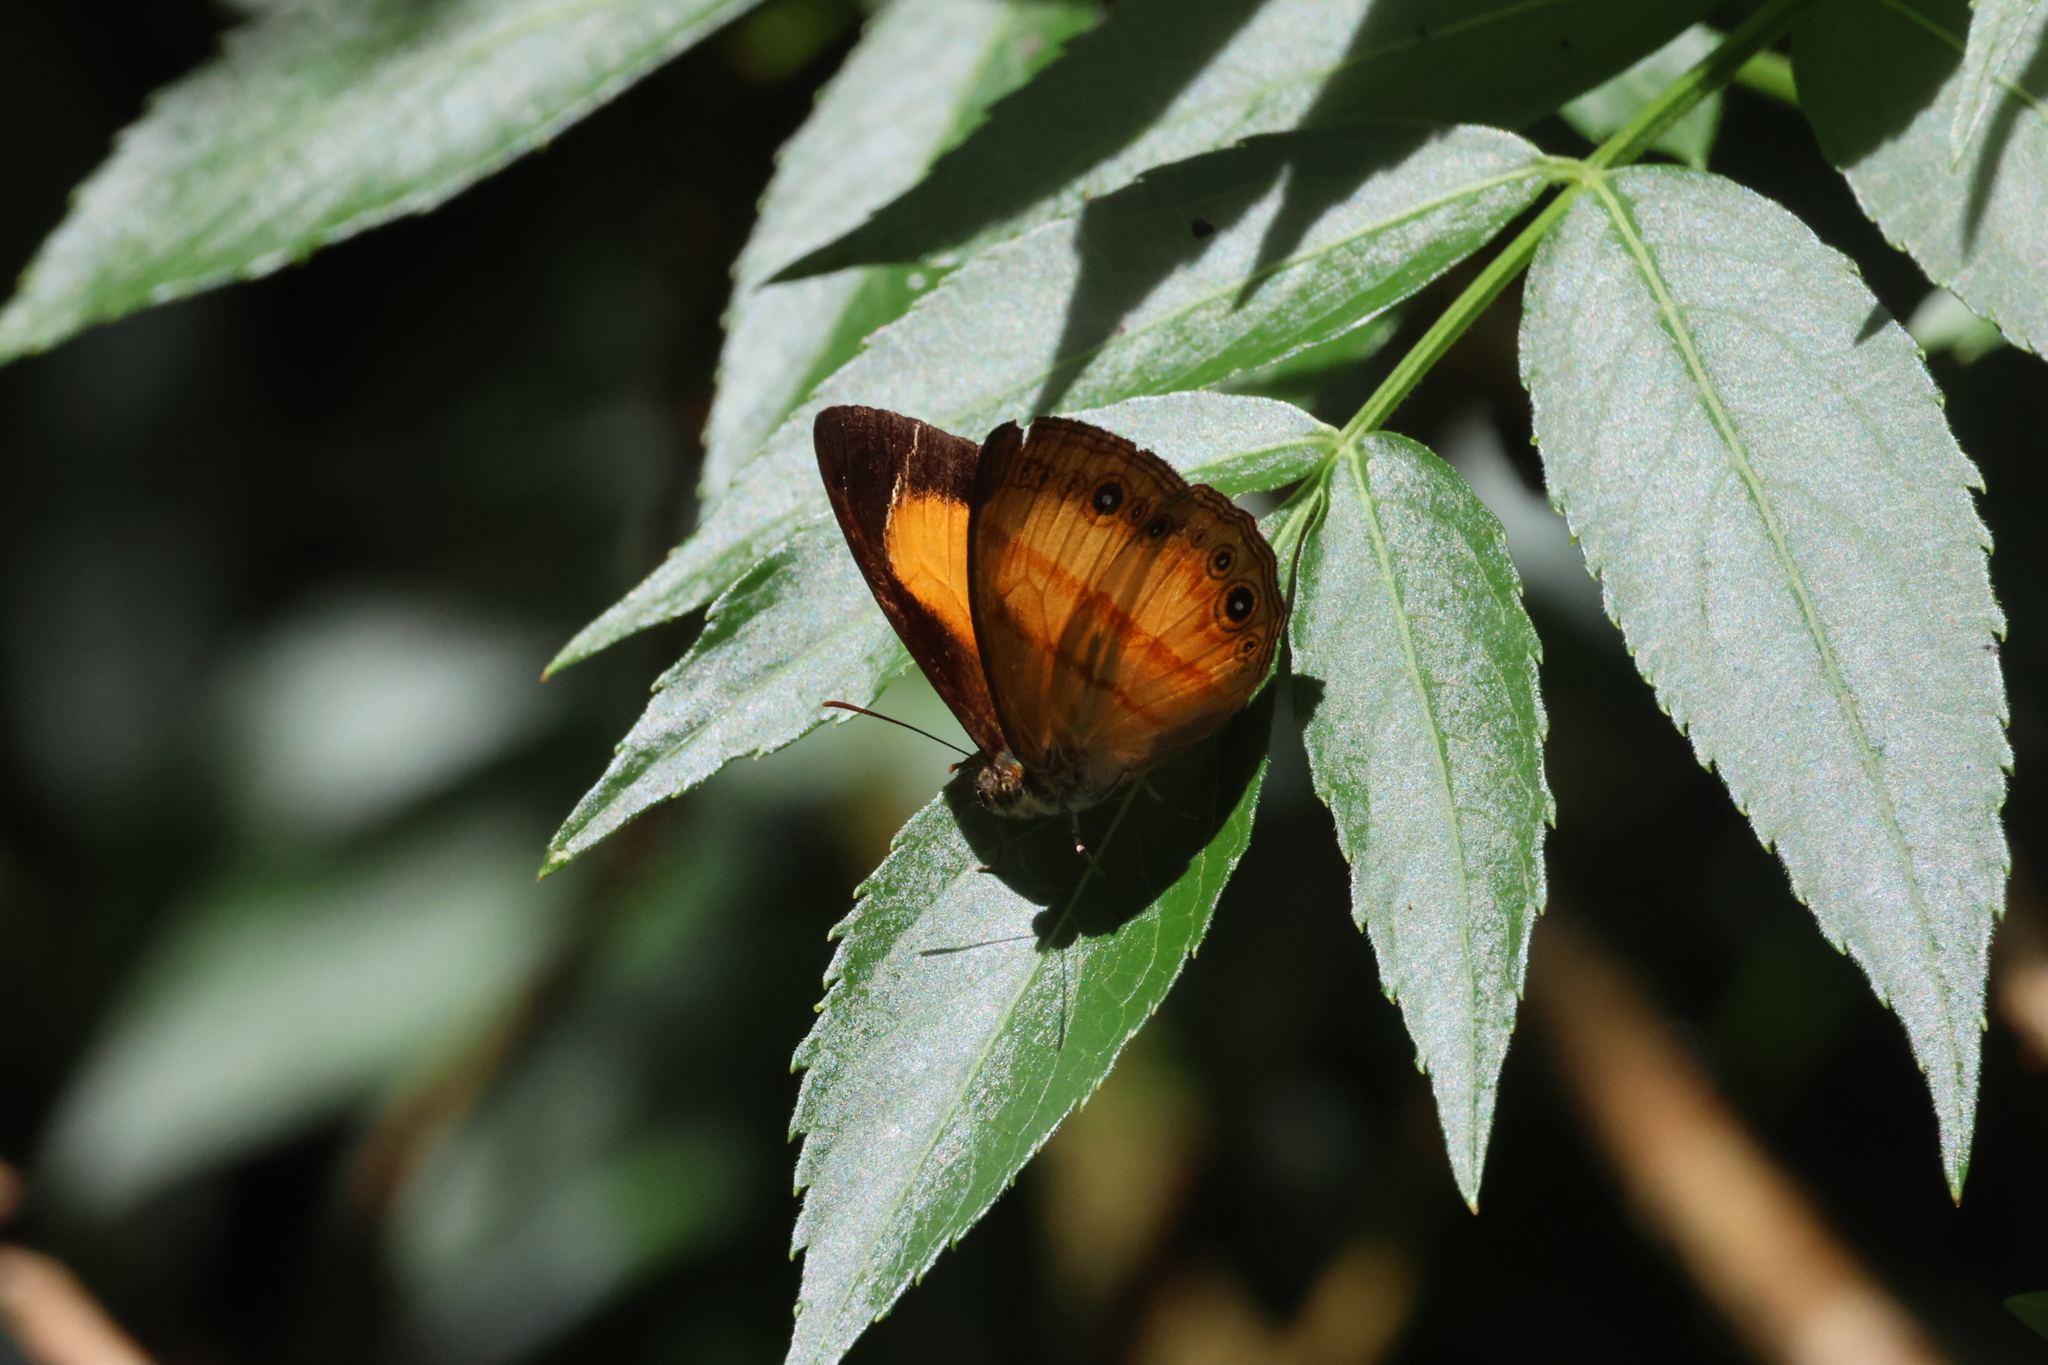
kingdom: Animalia
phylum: Arthropoda
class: Insecta
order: Lepidoptera
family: Nymphalidae
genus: Mycalesis
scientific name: Mycalesis marginata
